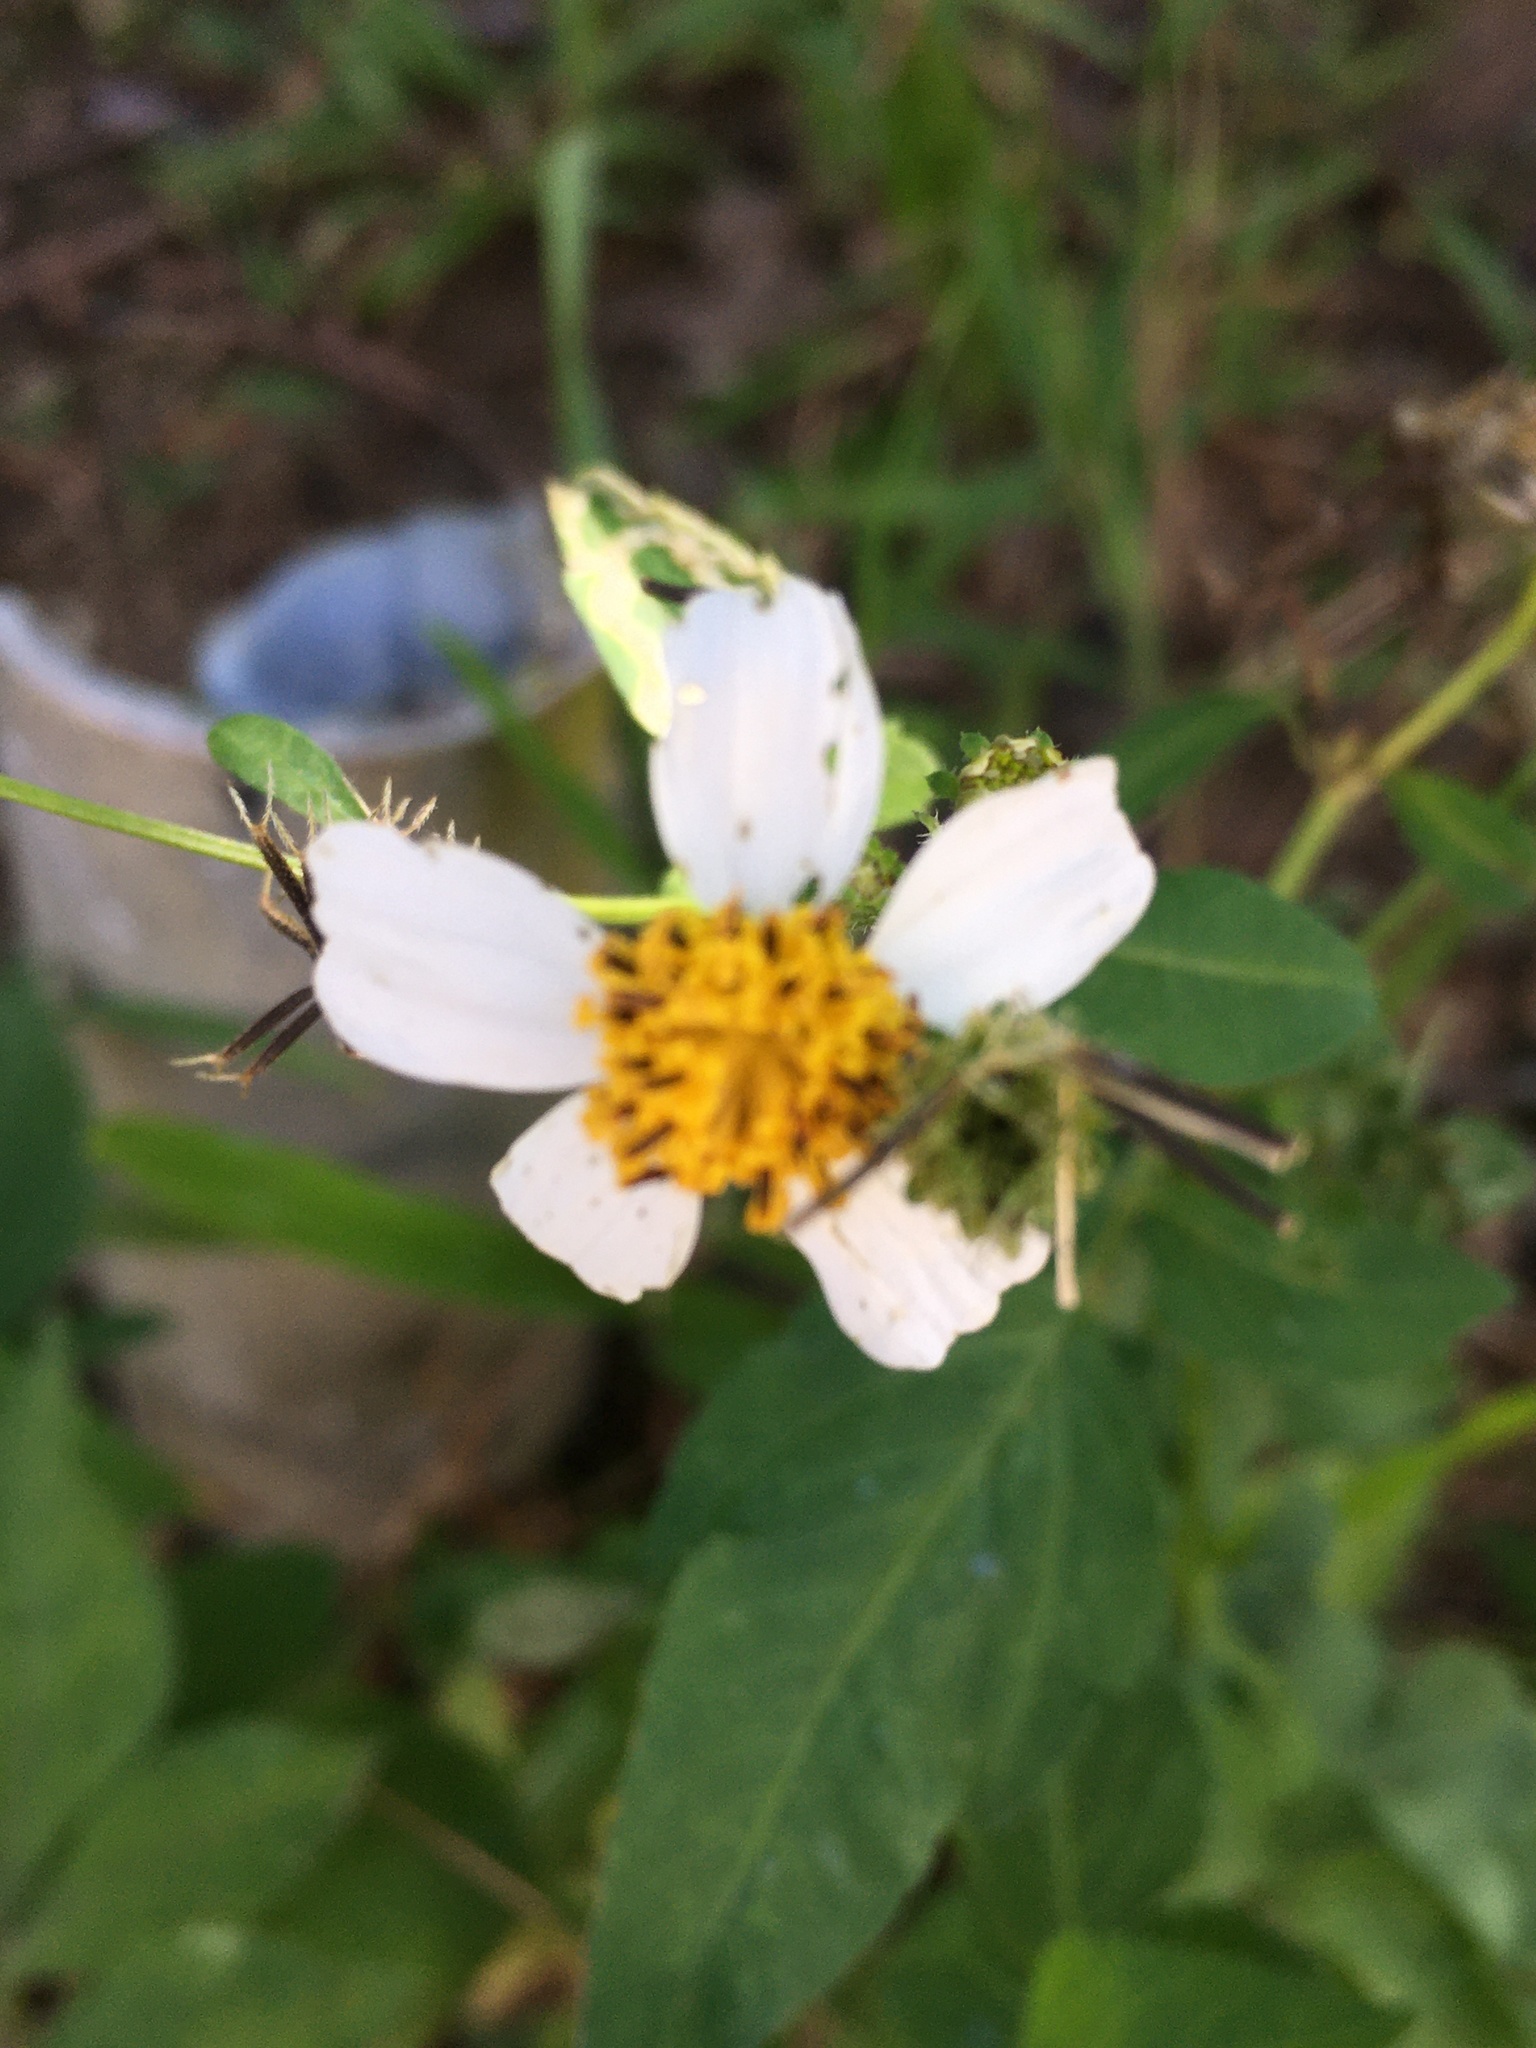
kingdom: Plantae
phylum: Tracheophyta
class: Magnoliopsida
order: Asterales
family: Asteraceae
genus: Bidens
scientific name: Bidens alba
